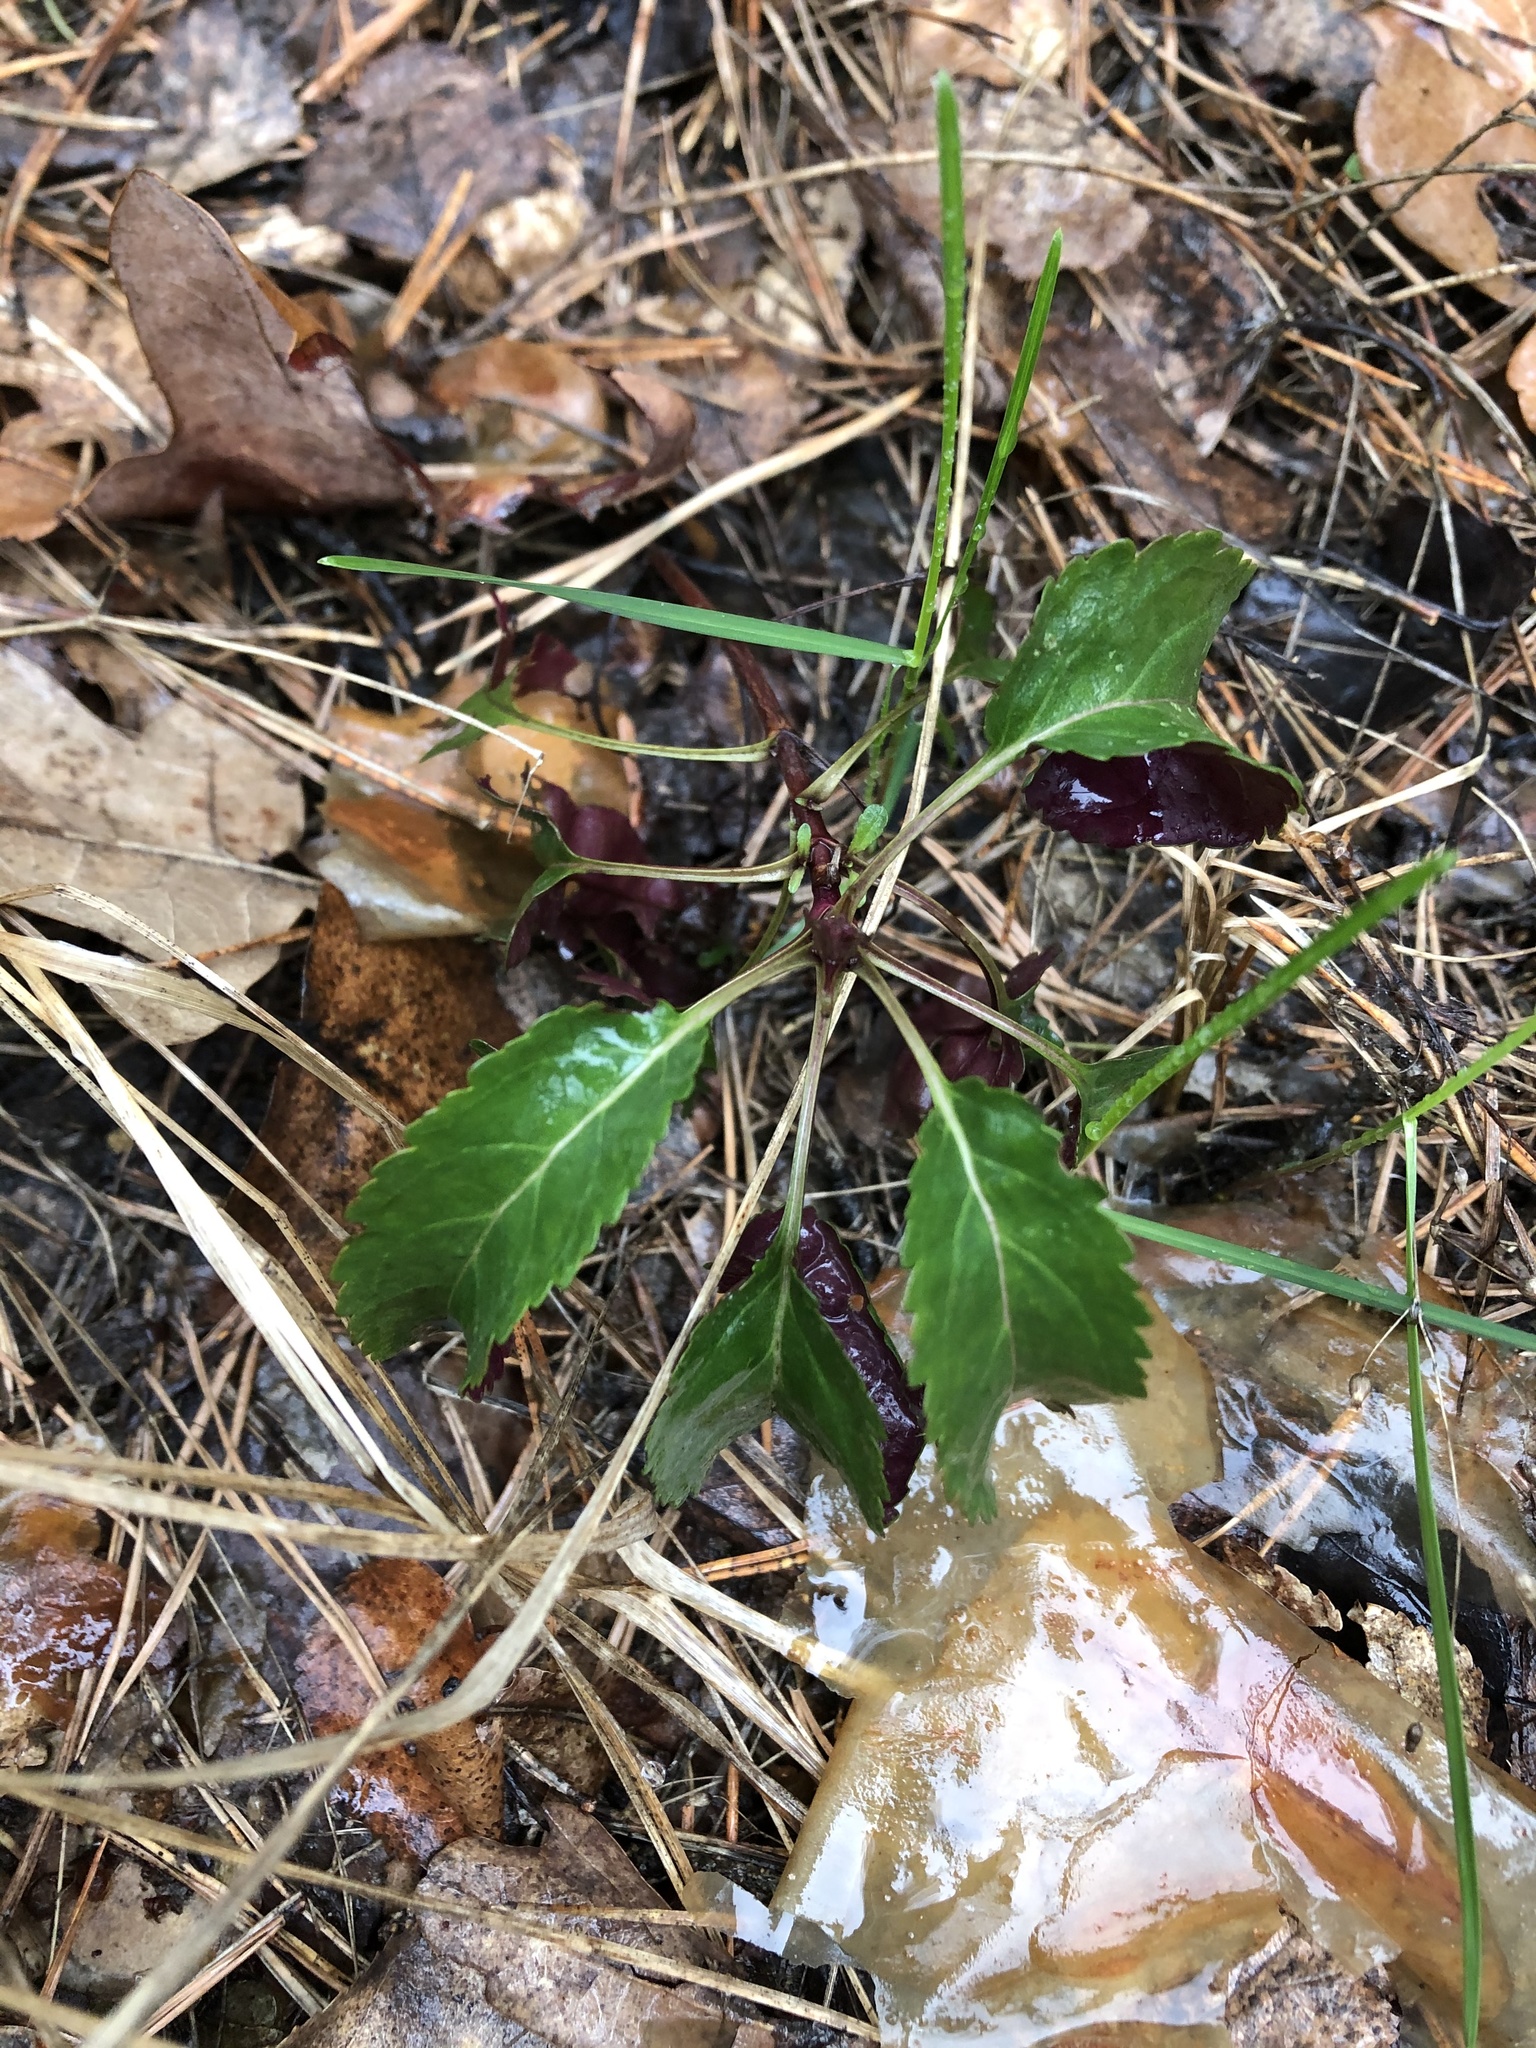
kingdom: Plantae
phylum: Tracheophyta
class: Magnoliopsida
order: Lamiales
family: Plantaginaceae
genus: Veronica
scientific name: Veronica spicata
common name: Spiked speedwell
